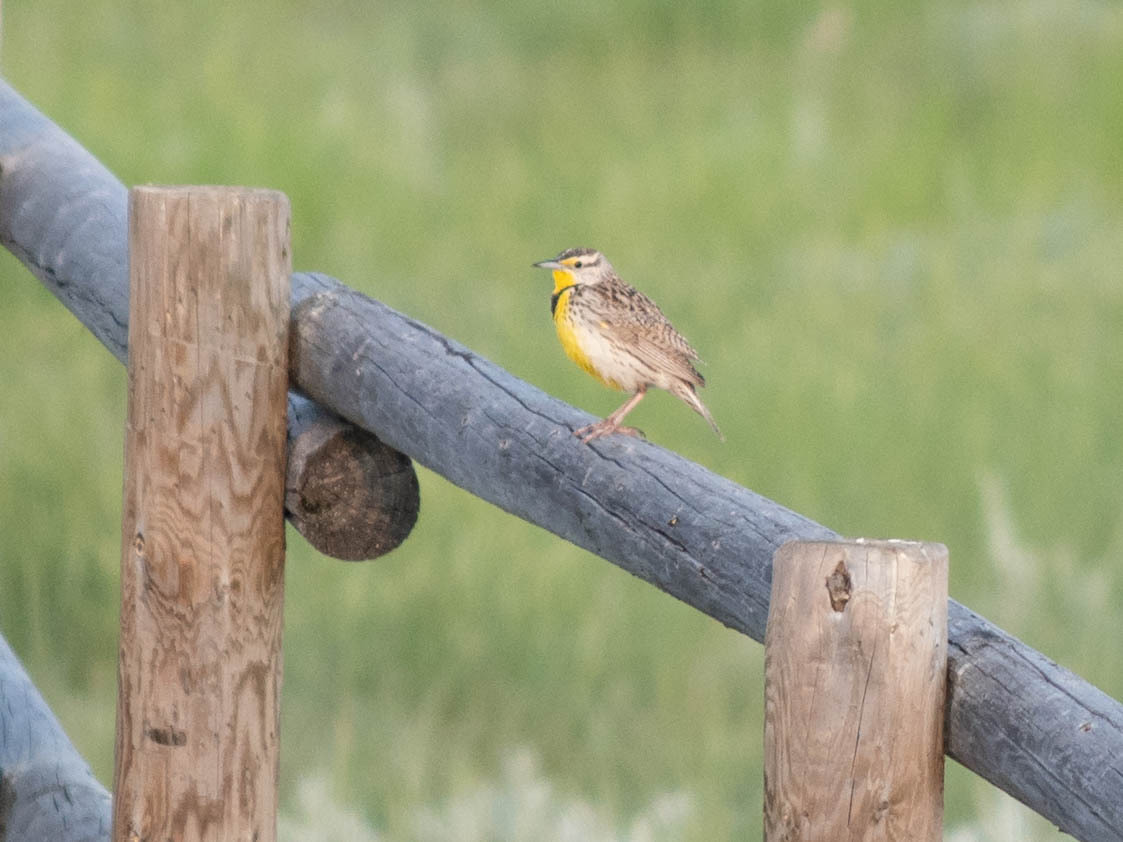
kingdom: Animalia
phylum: Chordata
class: Aves
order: Passeriformes
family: Icteridae
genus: Sturnella
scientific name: Sturnella neglecta
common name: Western meadowlark
